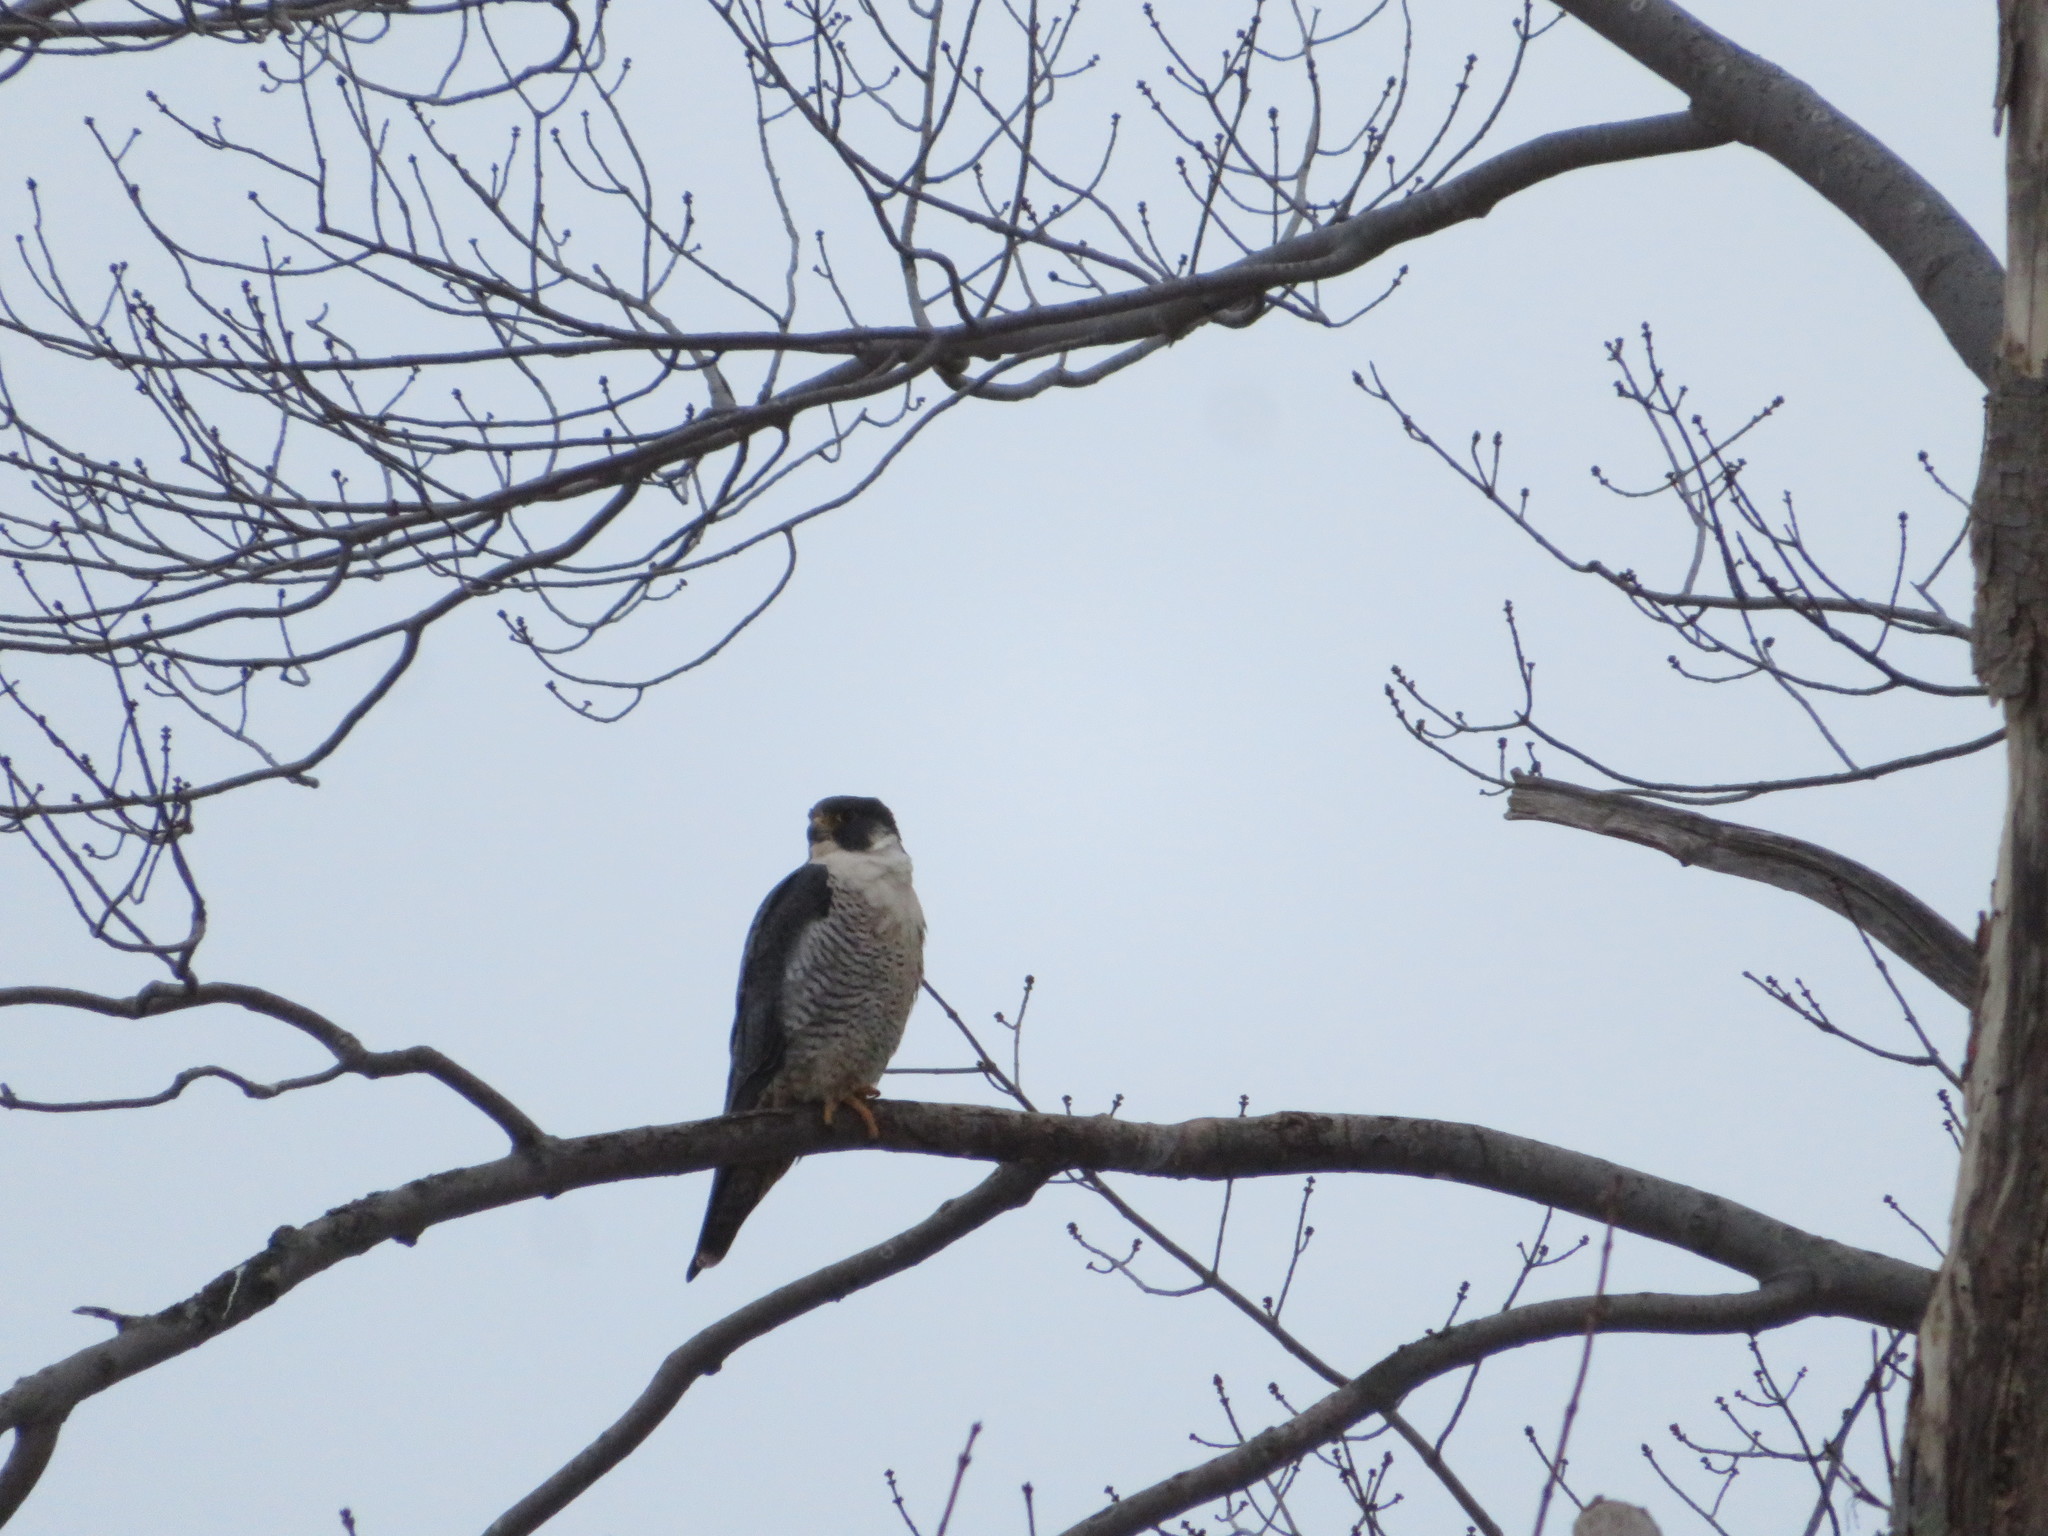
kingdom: Animalia
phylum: Chordata
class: Aves
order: Falconiformes
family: Falconidae
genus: Falco
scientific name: Falco peregrinus
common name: Peregrine falcon
